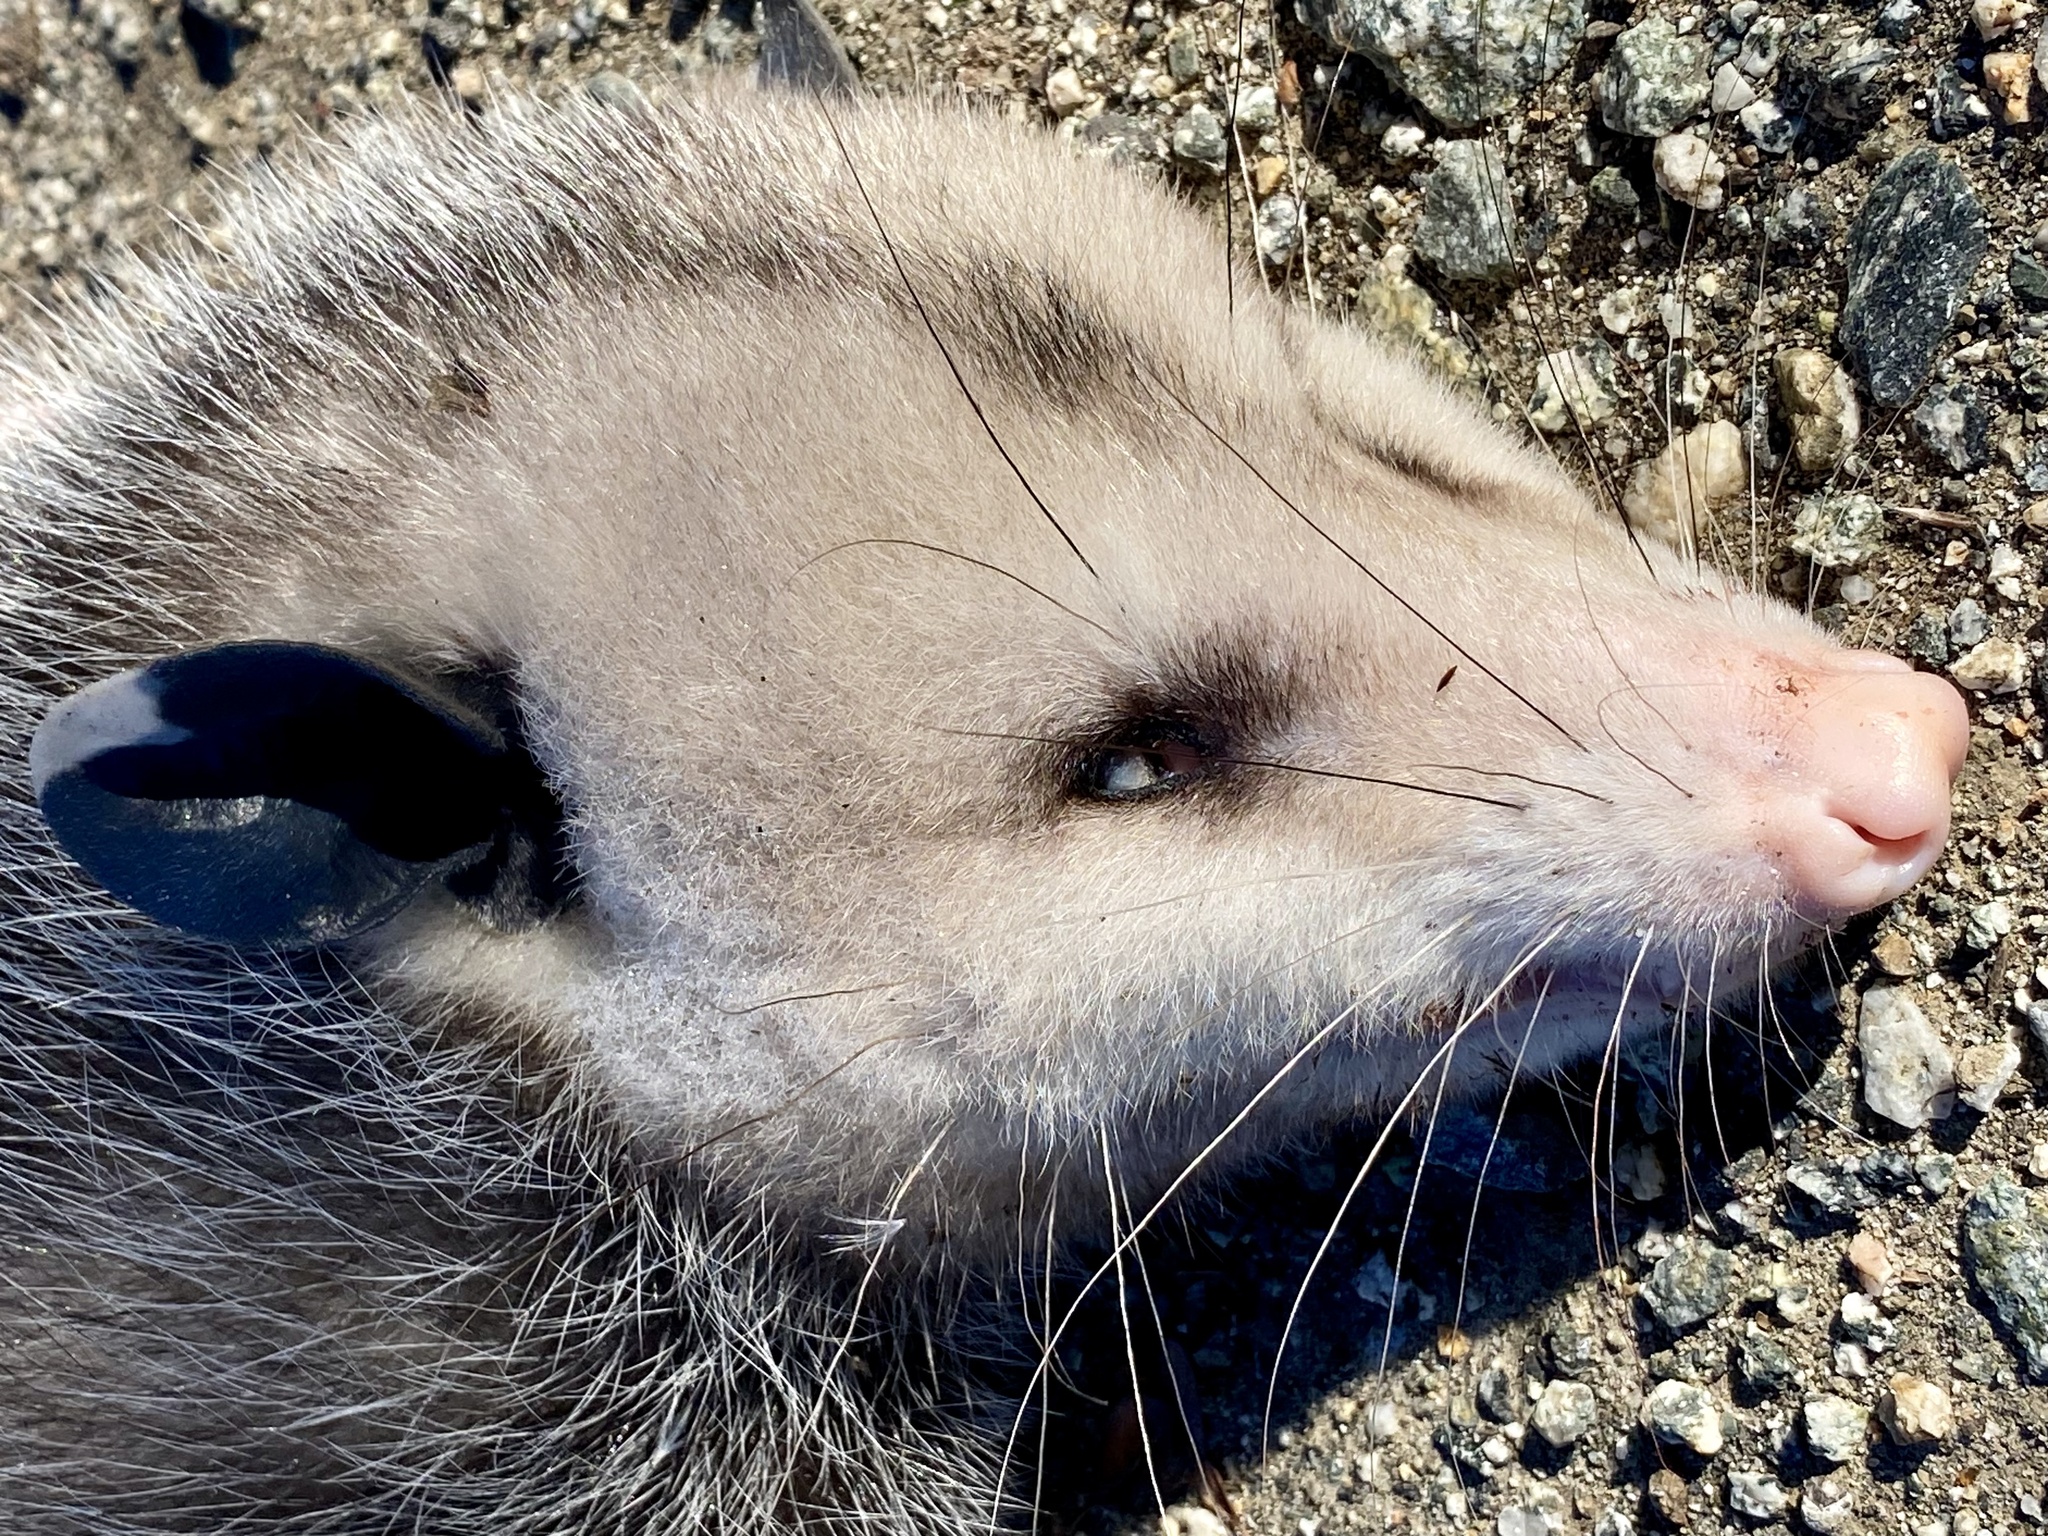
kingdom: Animalia
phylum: Chordata
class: Mammalia
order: Didelphimorphia
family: Didelphidae
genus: Didelphis
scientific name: Didelphis virginiana
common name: Virginia opossum
